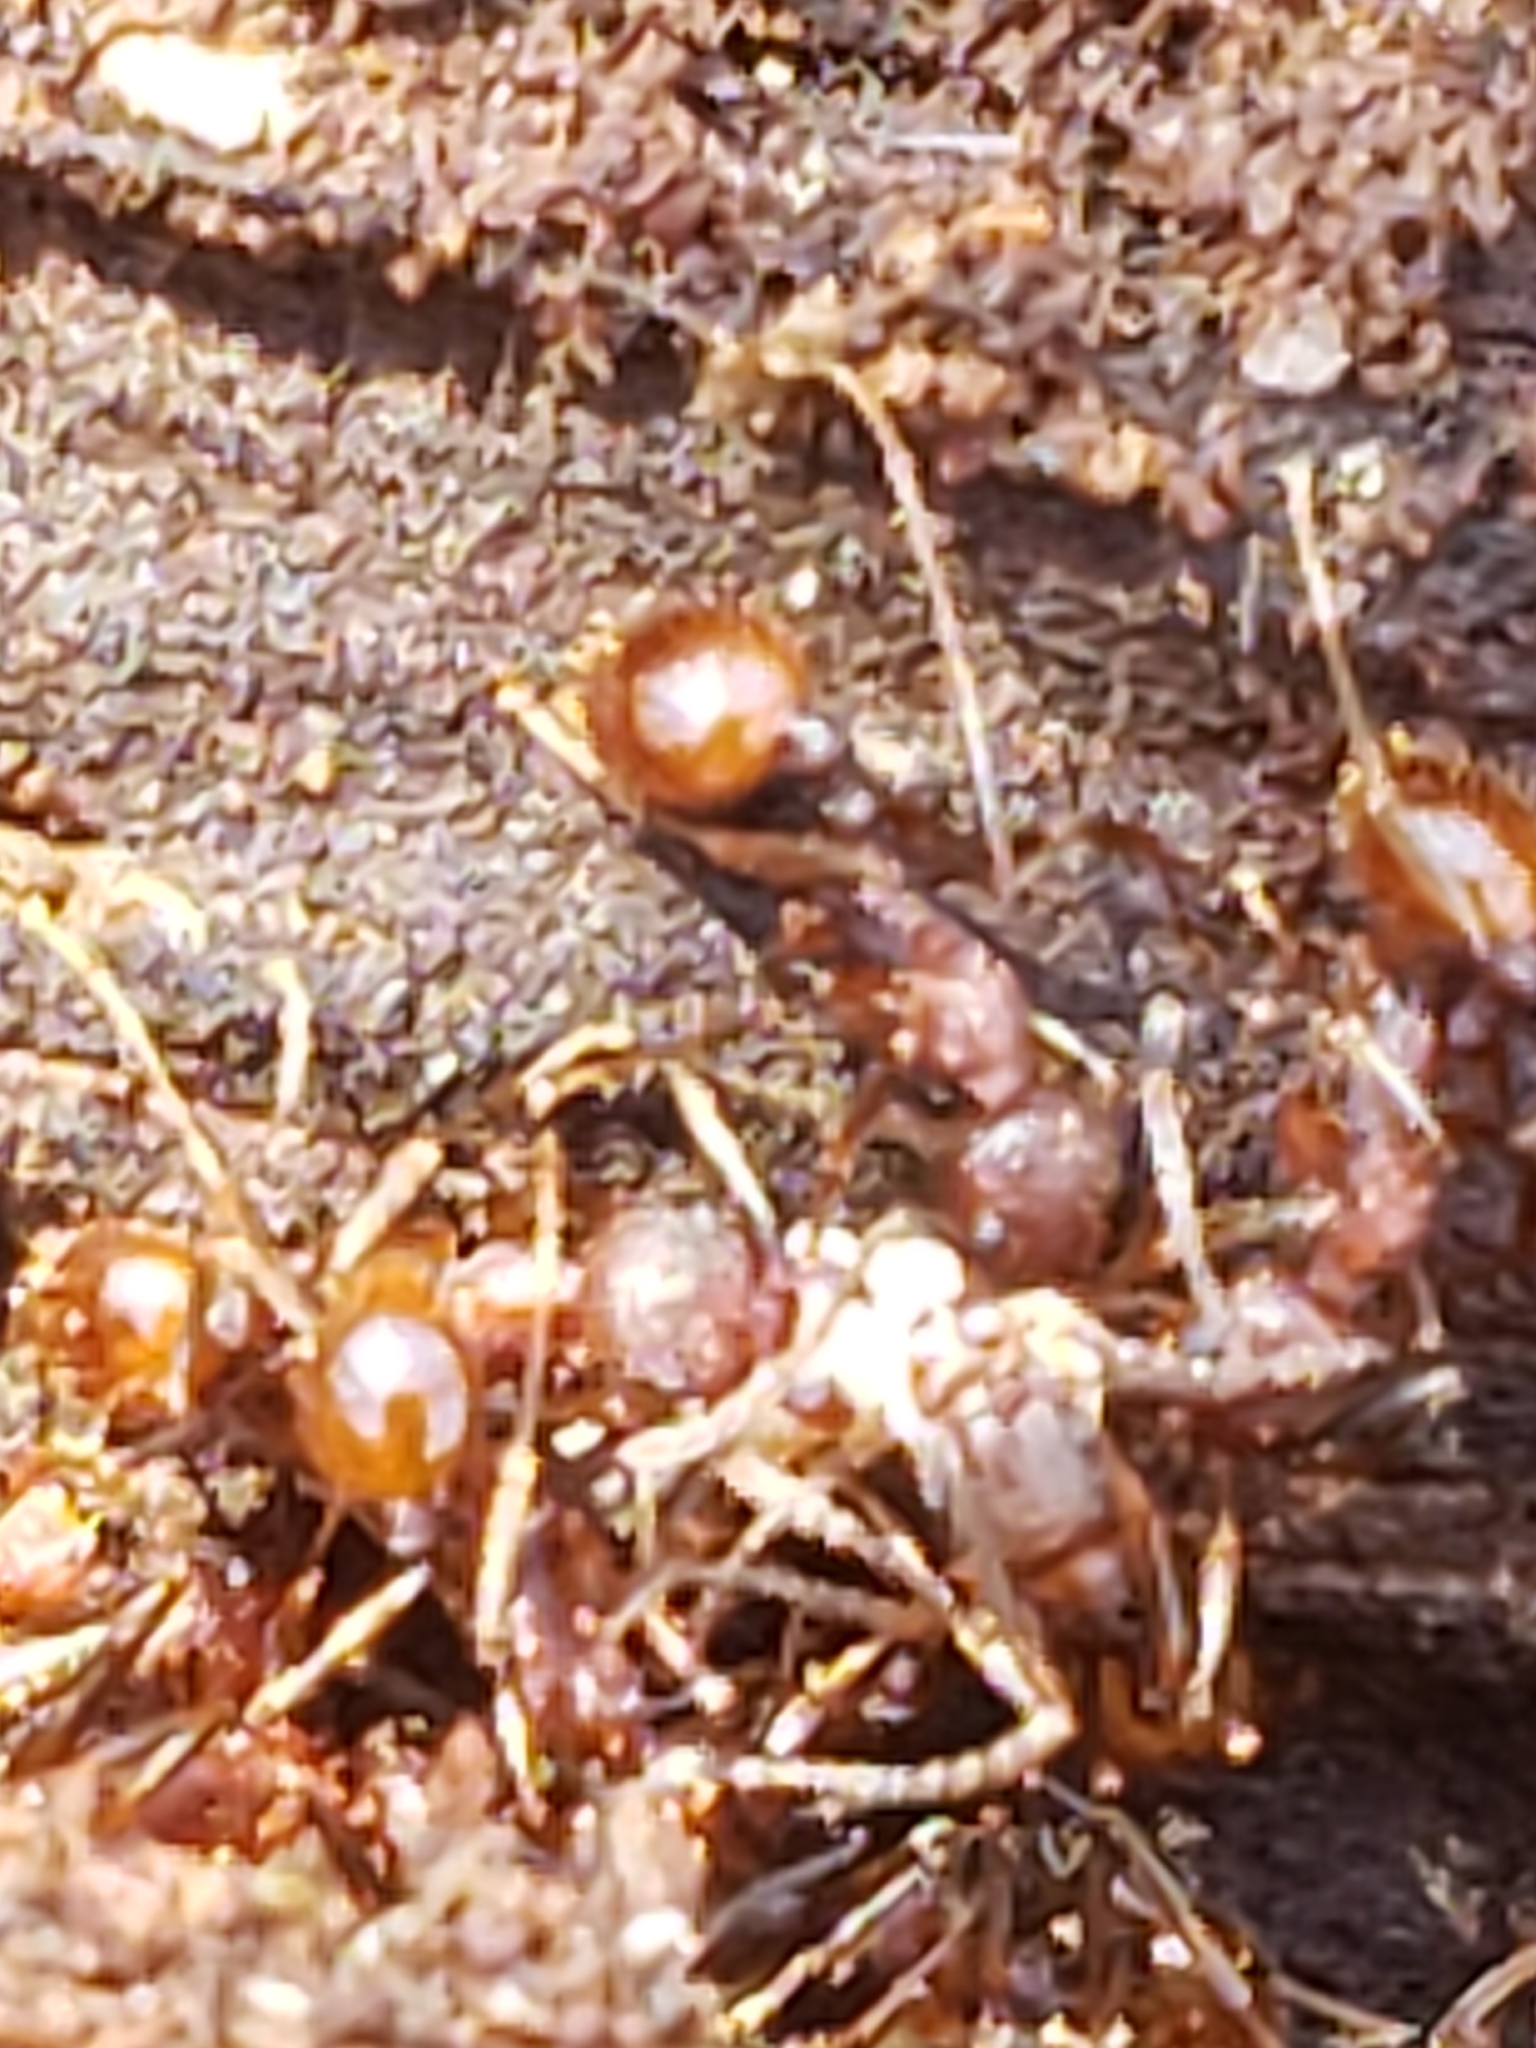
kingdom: Animalia
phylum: Arthropoda
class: Insecta
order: Hymenoptera
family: Formicidae
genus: Aphaenogaster
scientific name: Aphaenogaster fulva
